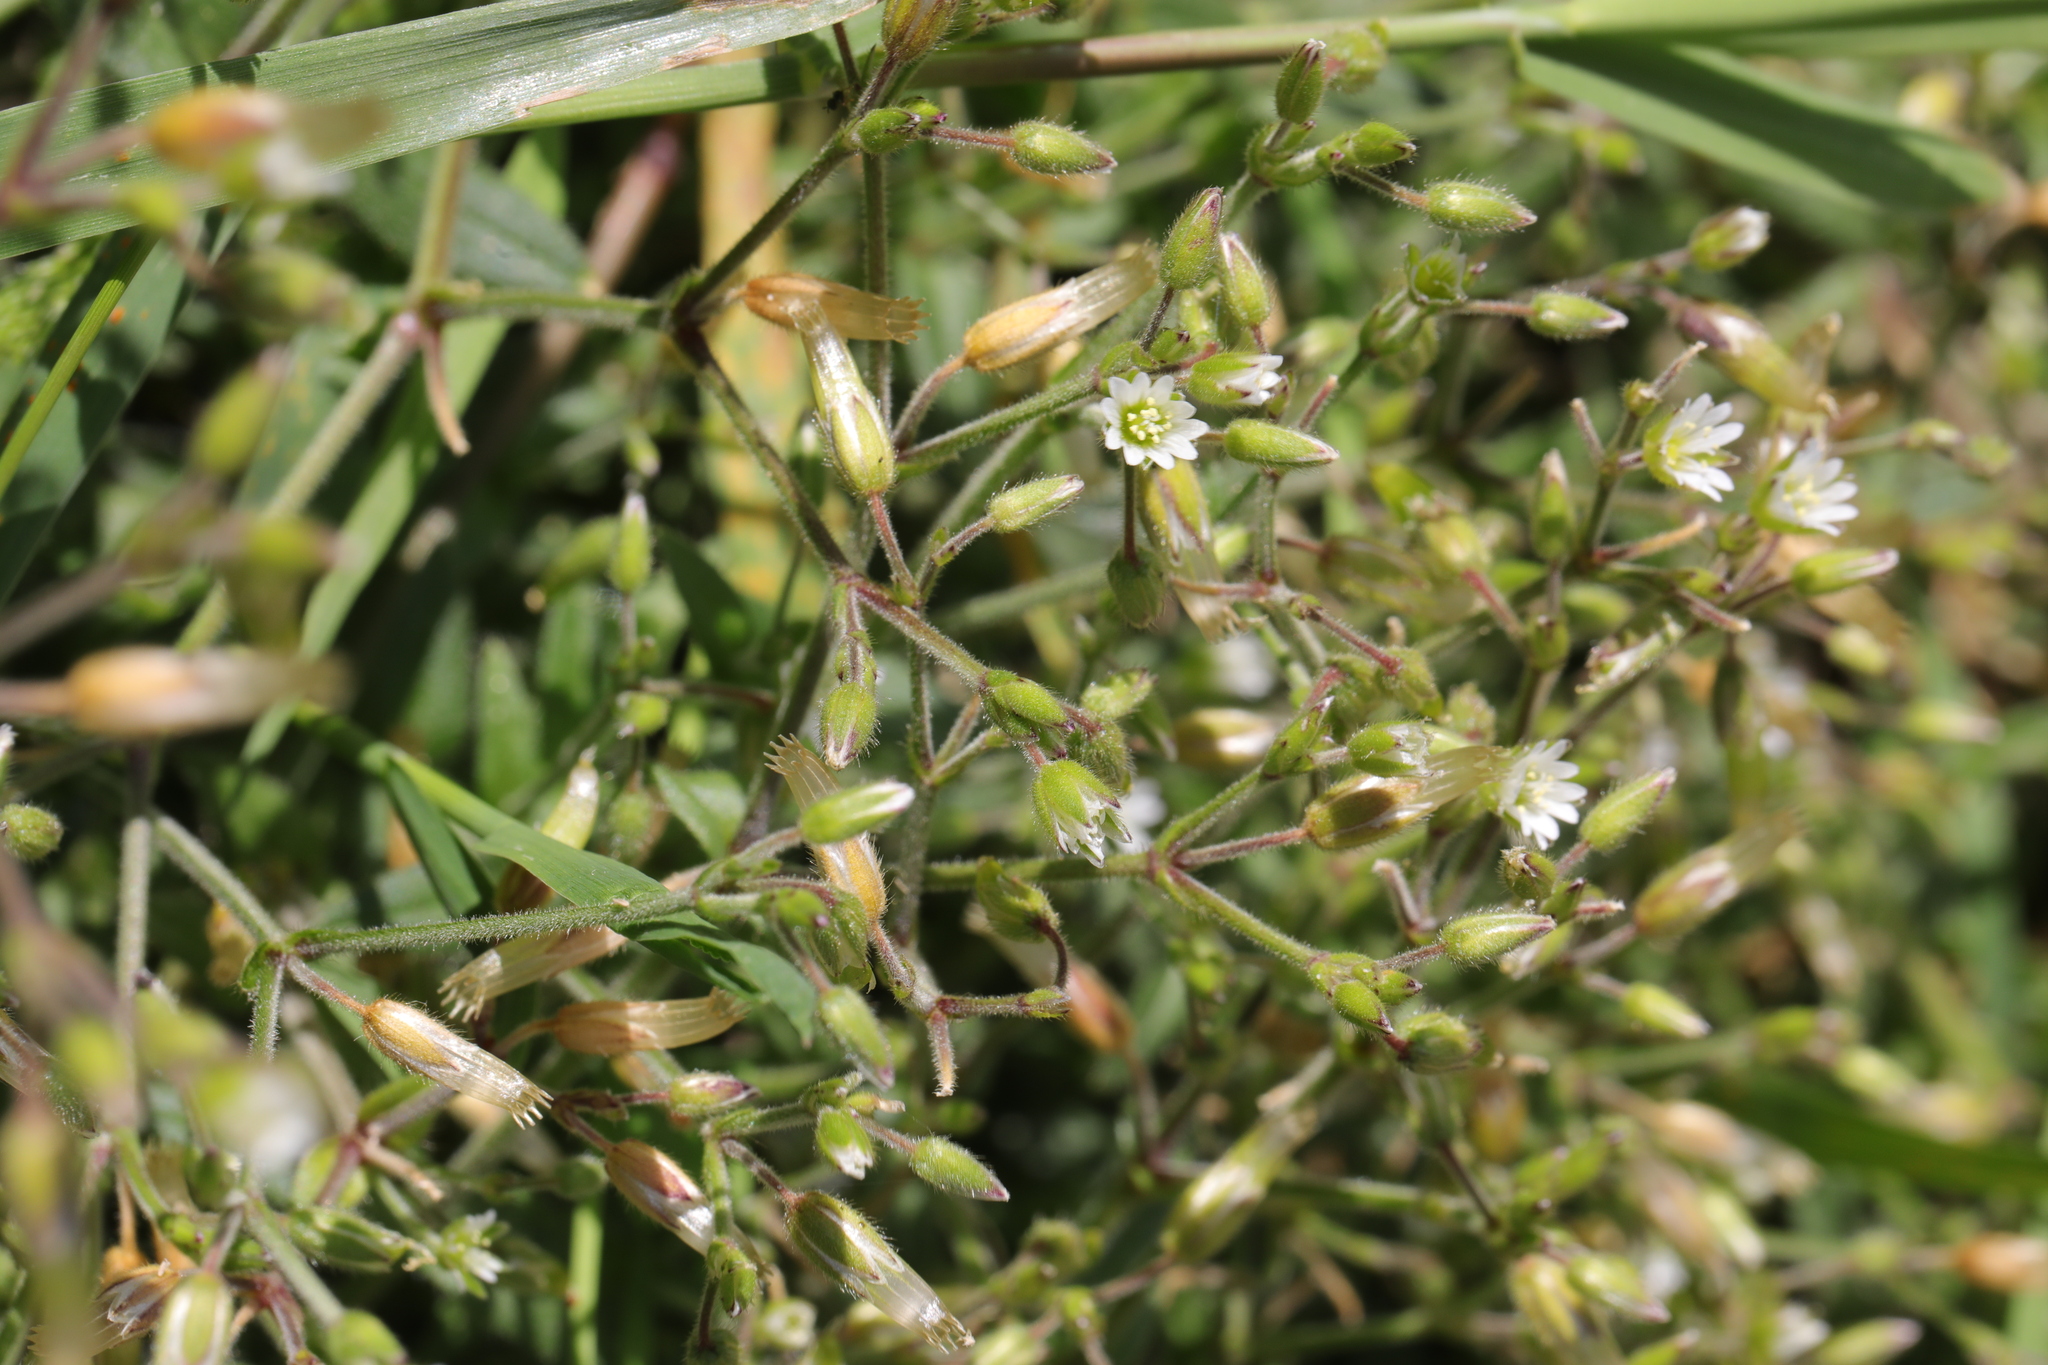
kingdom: Plantae
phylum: Tracheophyta
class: Magnoliopsida
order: Caryophyllales
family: Caryophyllaceae
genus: Cerastium
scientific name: Cerastium fontanum
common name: Common mouse-ear
